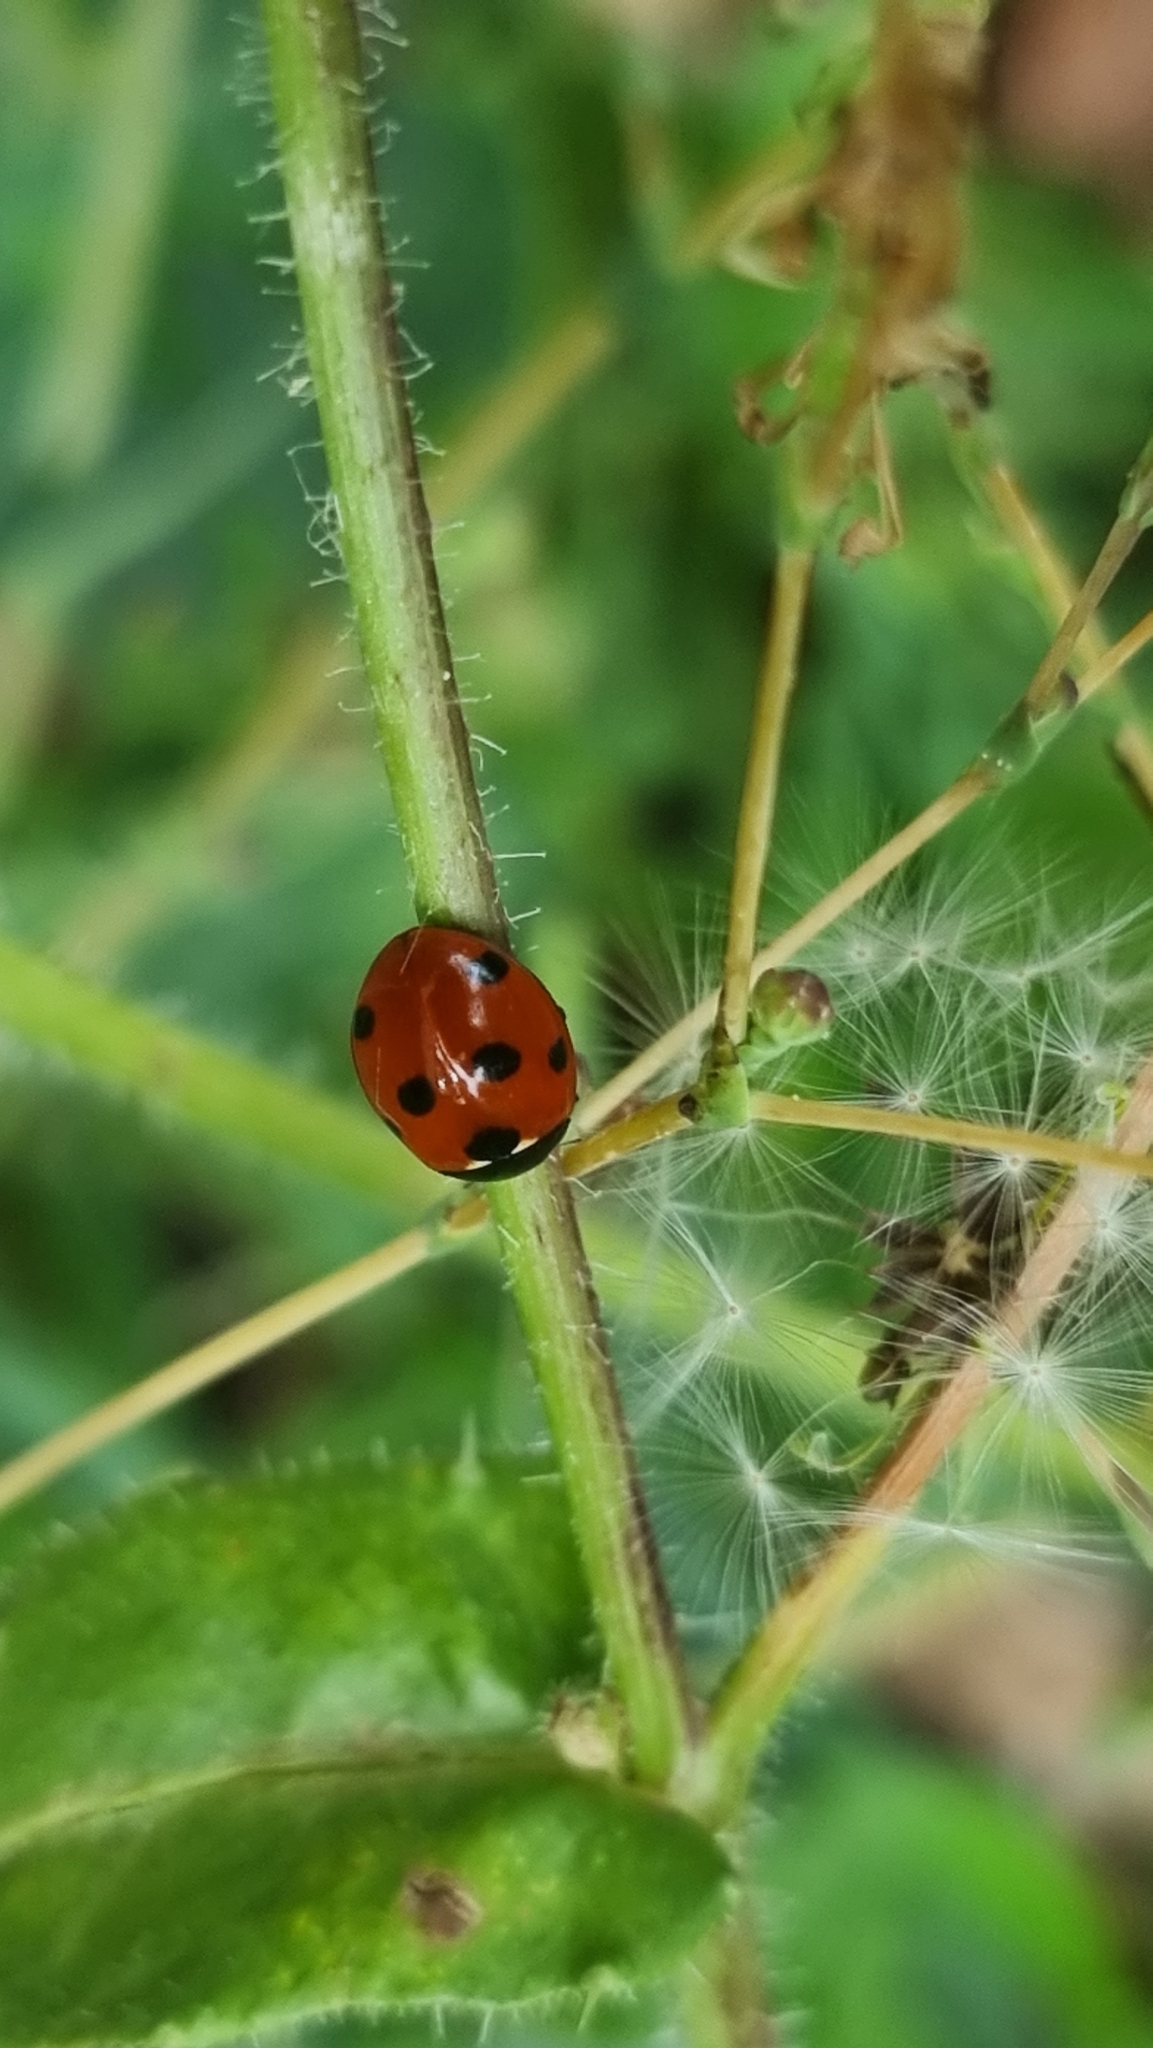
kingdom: Animalia
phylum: Arthropoda
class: Insecta
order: Coleoptera
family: Coccinellidae
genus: Coccinella
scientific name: Coccinella septempunctata
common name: Sevenspotted lady beetle
